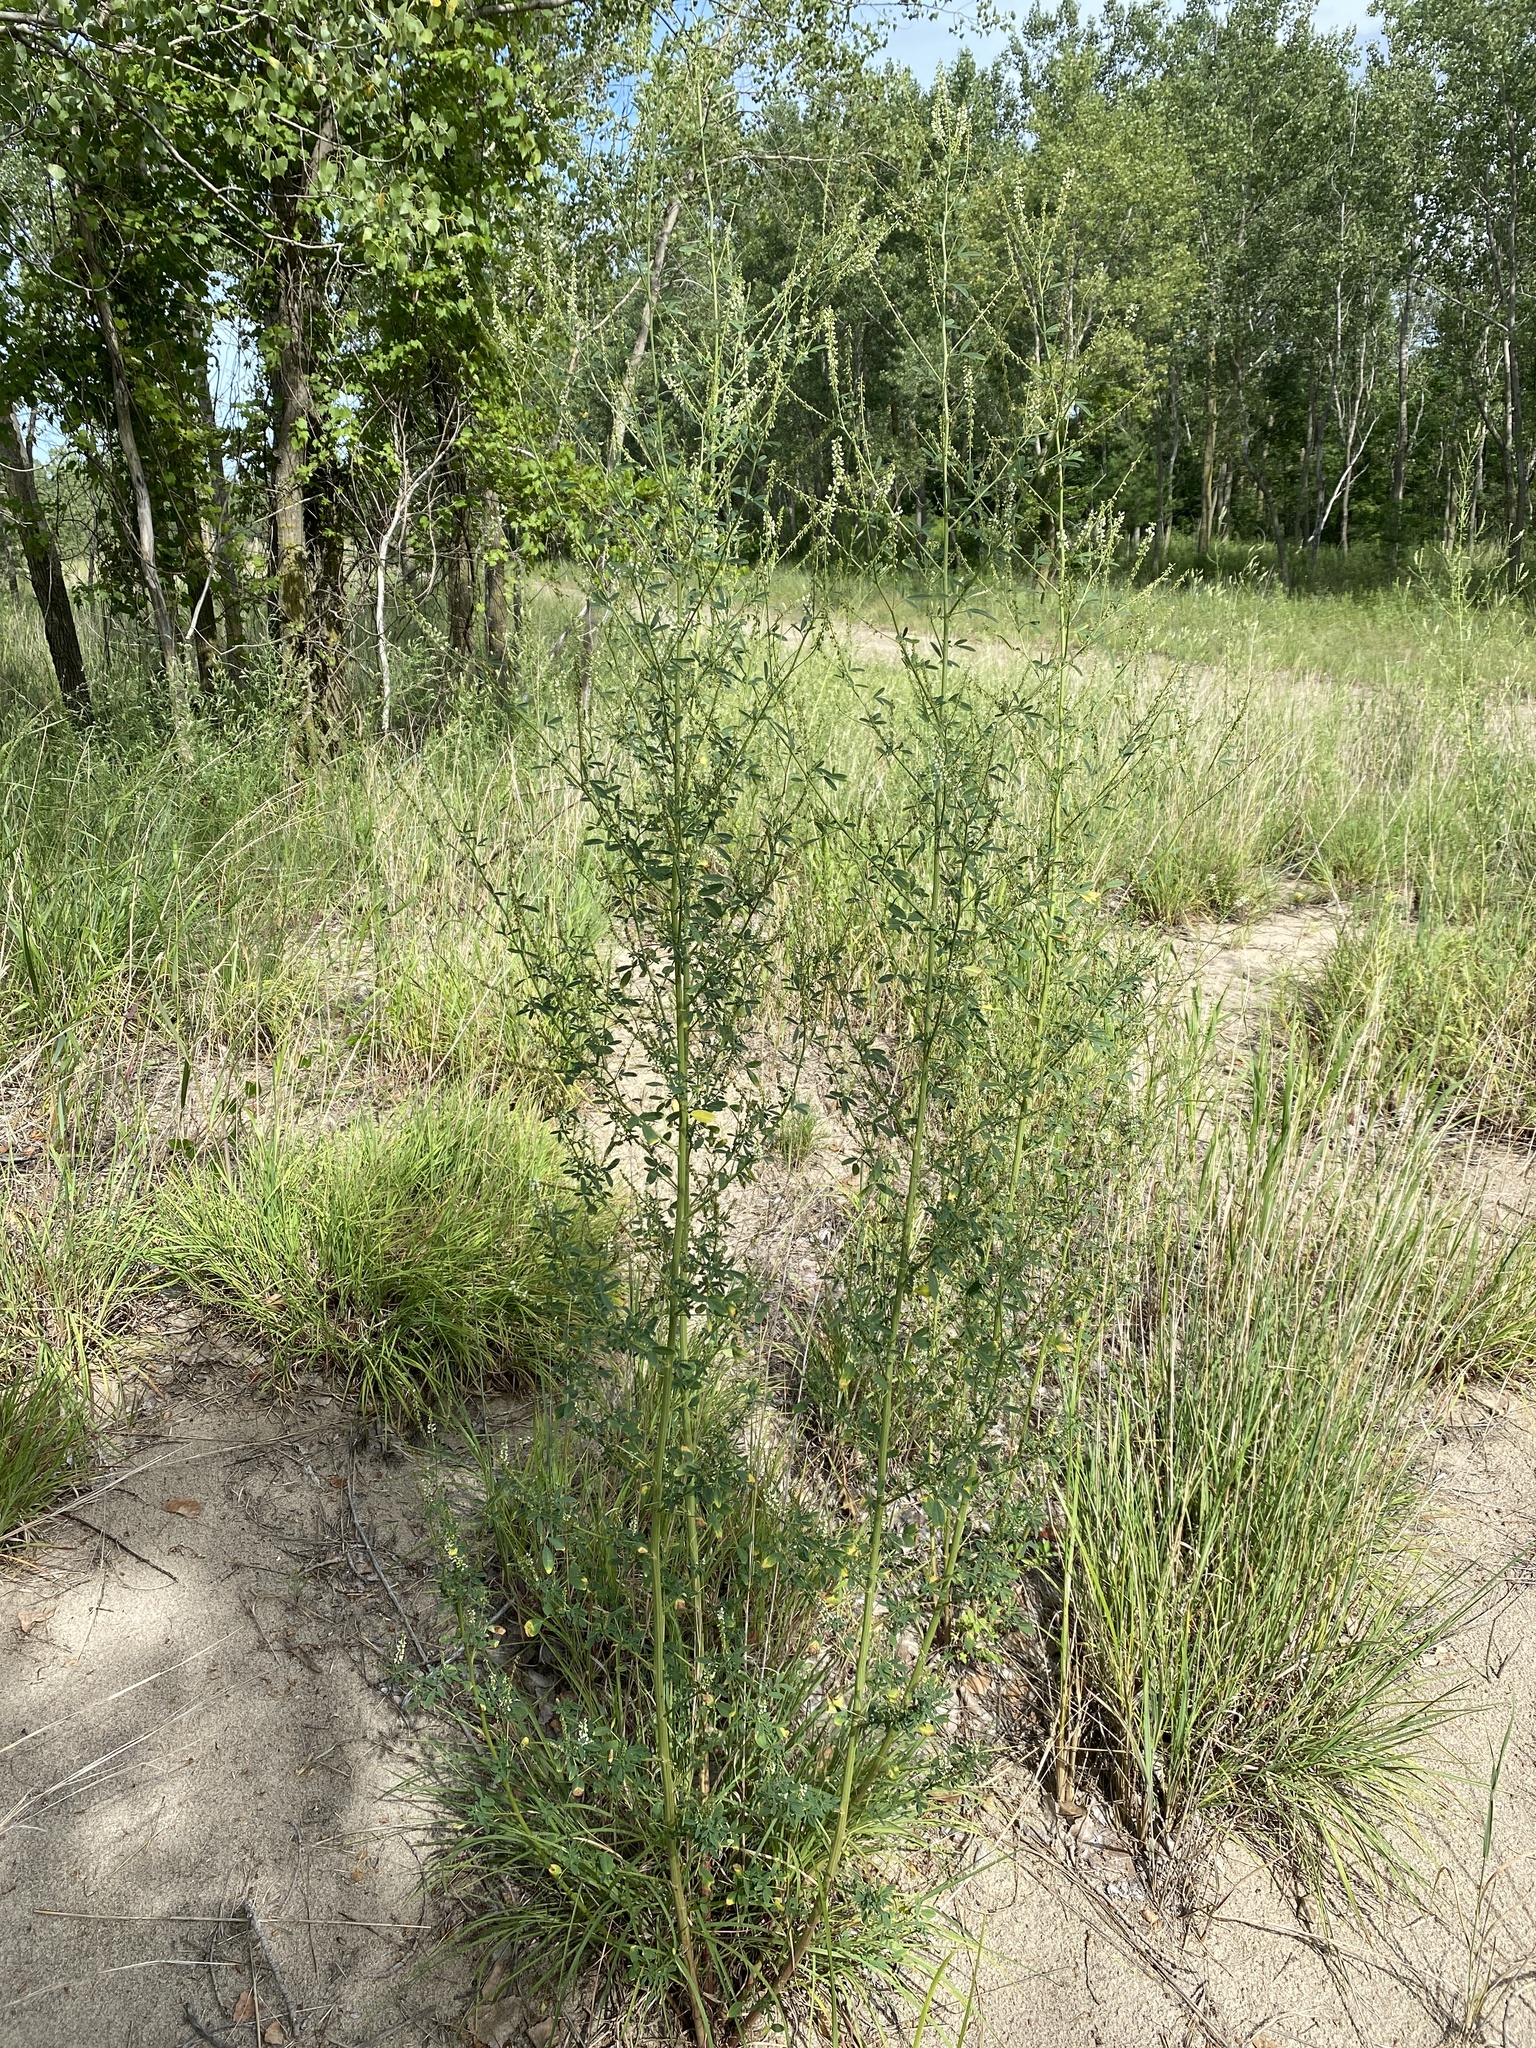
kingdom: Plantae
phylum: Tracheophyta
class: Magnoliopsida
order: Fabales
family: Fabaceae
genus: Melilotus
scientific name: Melilotus albus
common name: White melilot
